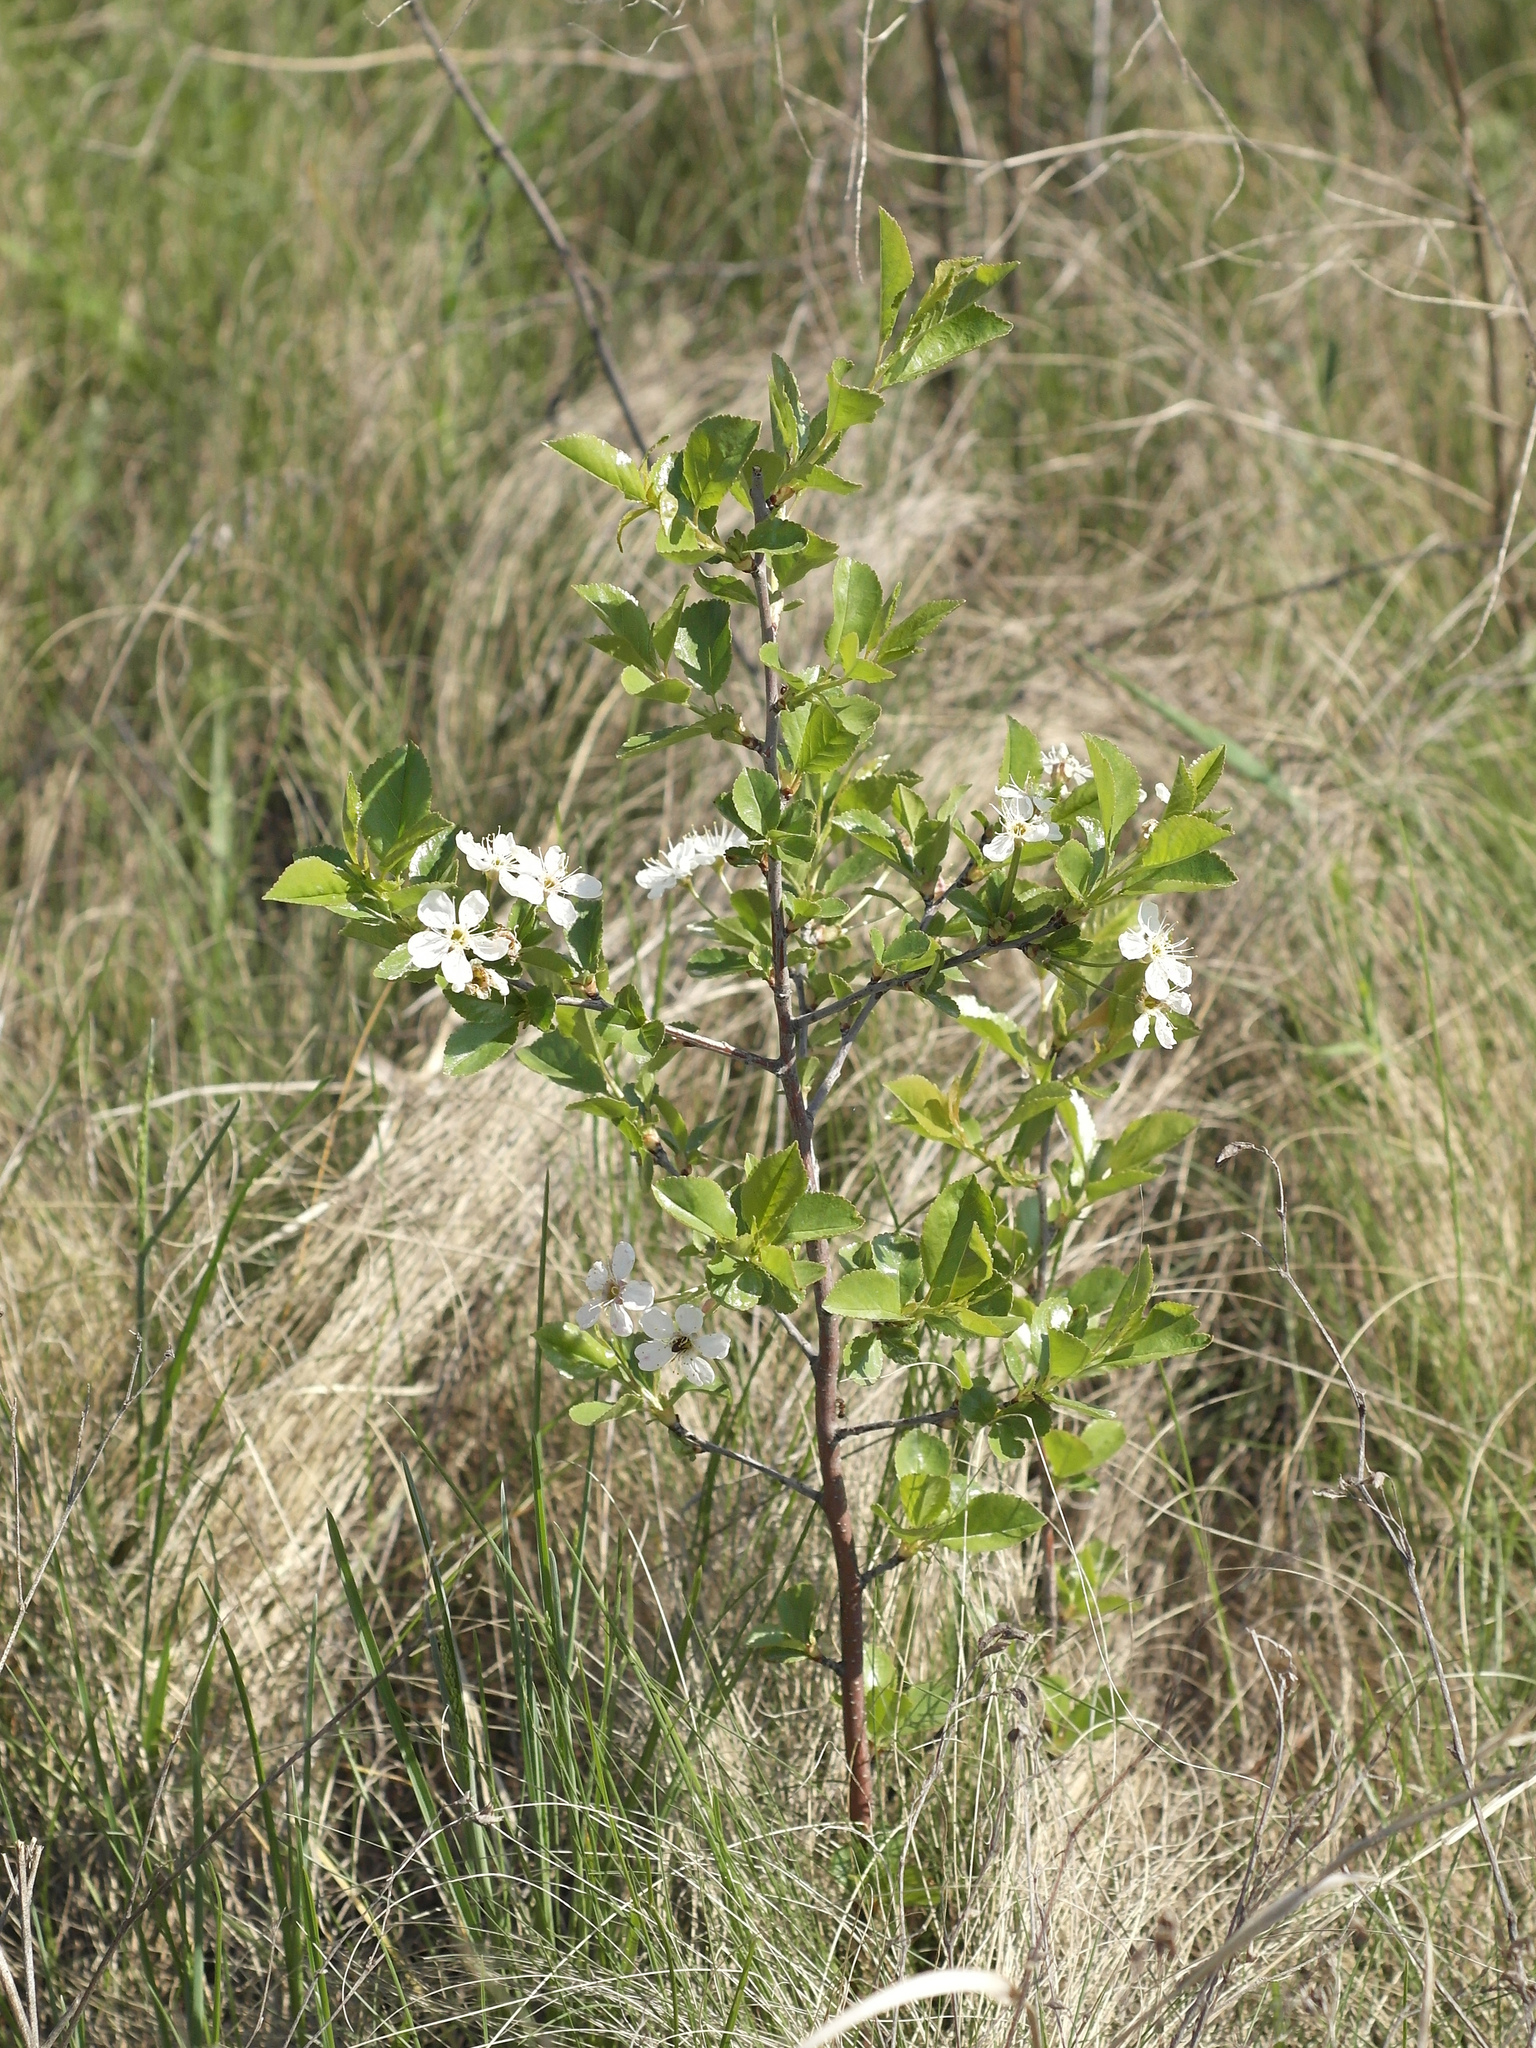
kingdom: Plantae
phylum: Tracheophyta
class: Magnoliopsida
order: Rosales
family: Rosaceae
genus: Prunus
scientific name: Prunus fruticosa
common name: European dwarf cherry
